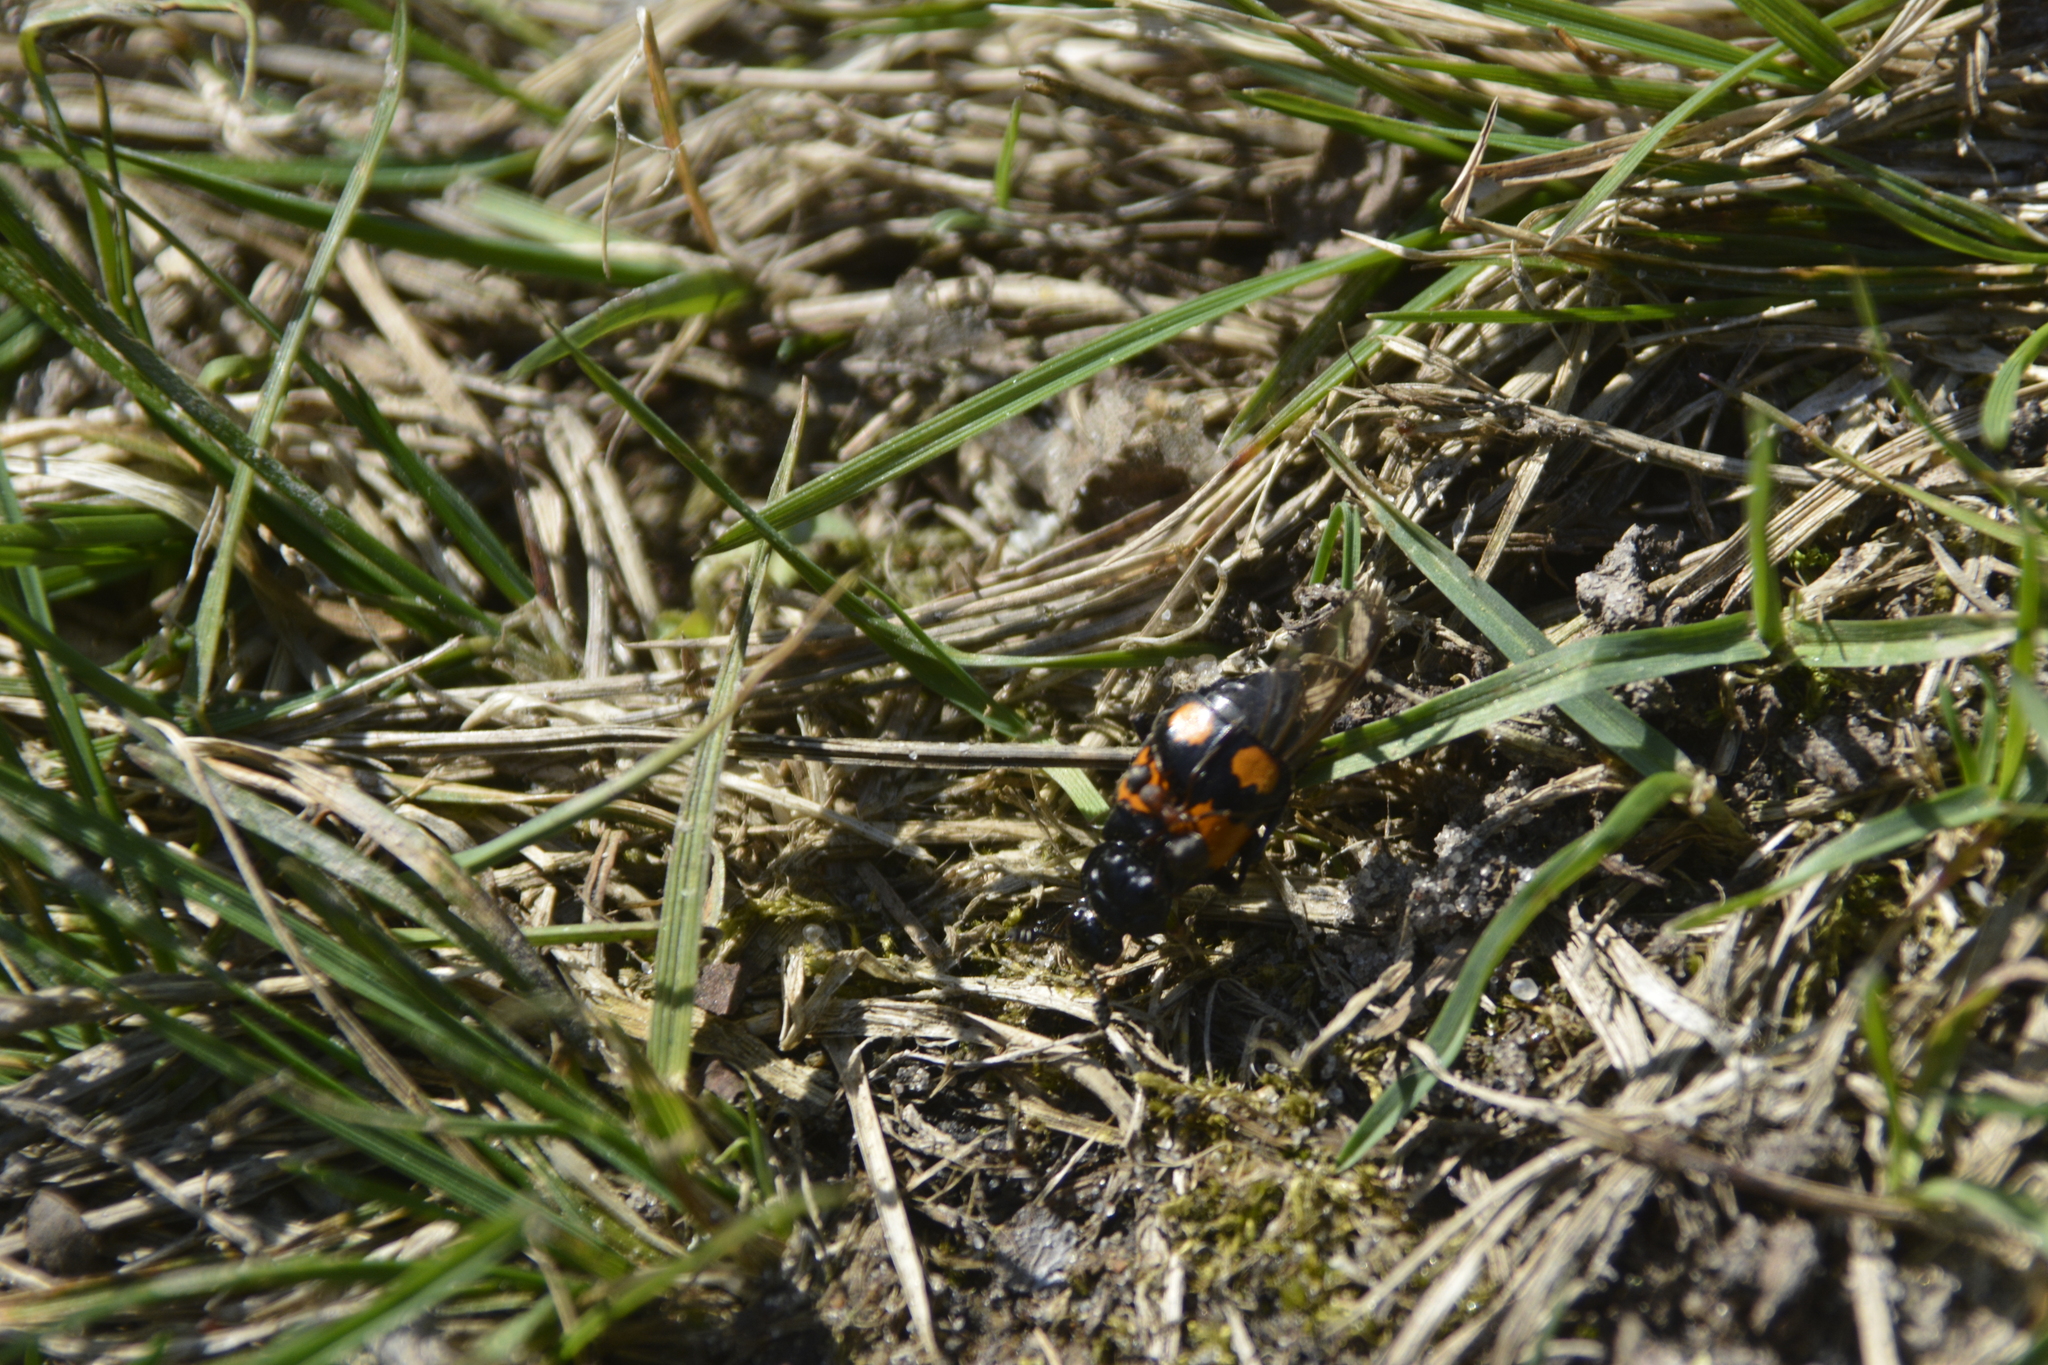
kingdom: Animalia
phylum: Arthropoda
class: Insecta
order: Coleoptera
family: Staphylinidae
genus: Nicrophorus
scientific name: Nicrophorus vespilloides
